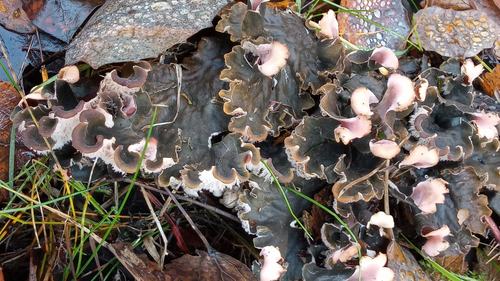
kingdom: Fungi
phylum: Ascomycota
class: Lecanoromycetes
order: Peltigerales
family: Peltigeraceae
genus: Peltigera
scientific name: Peltigera canina
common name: Dog pelt lichen
